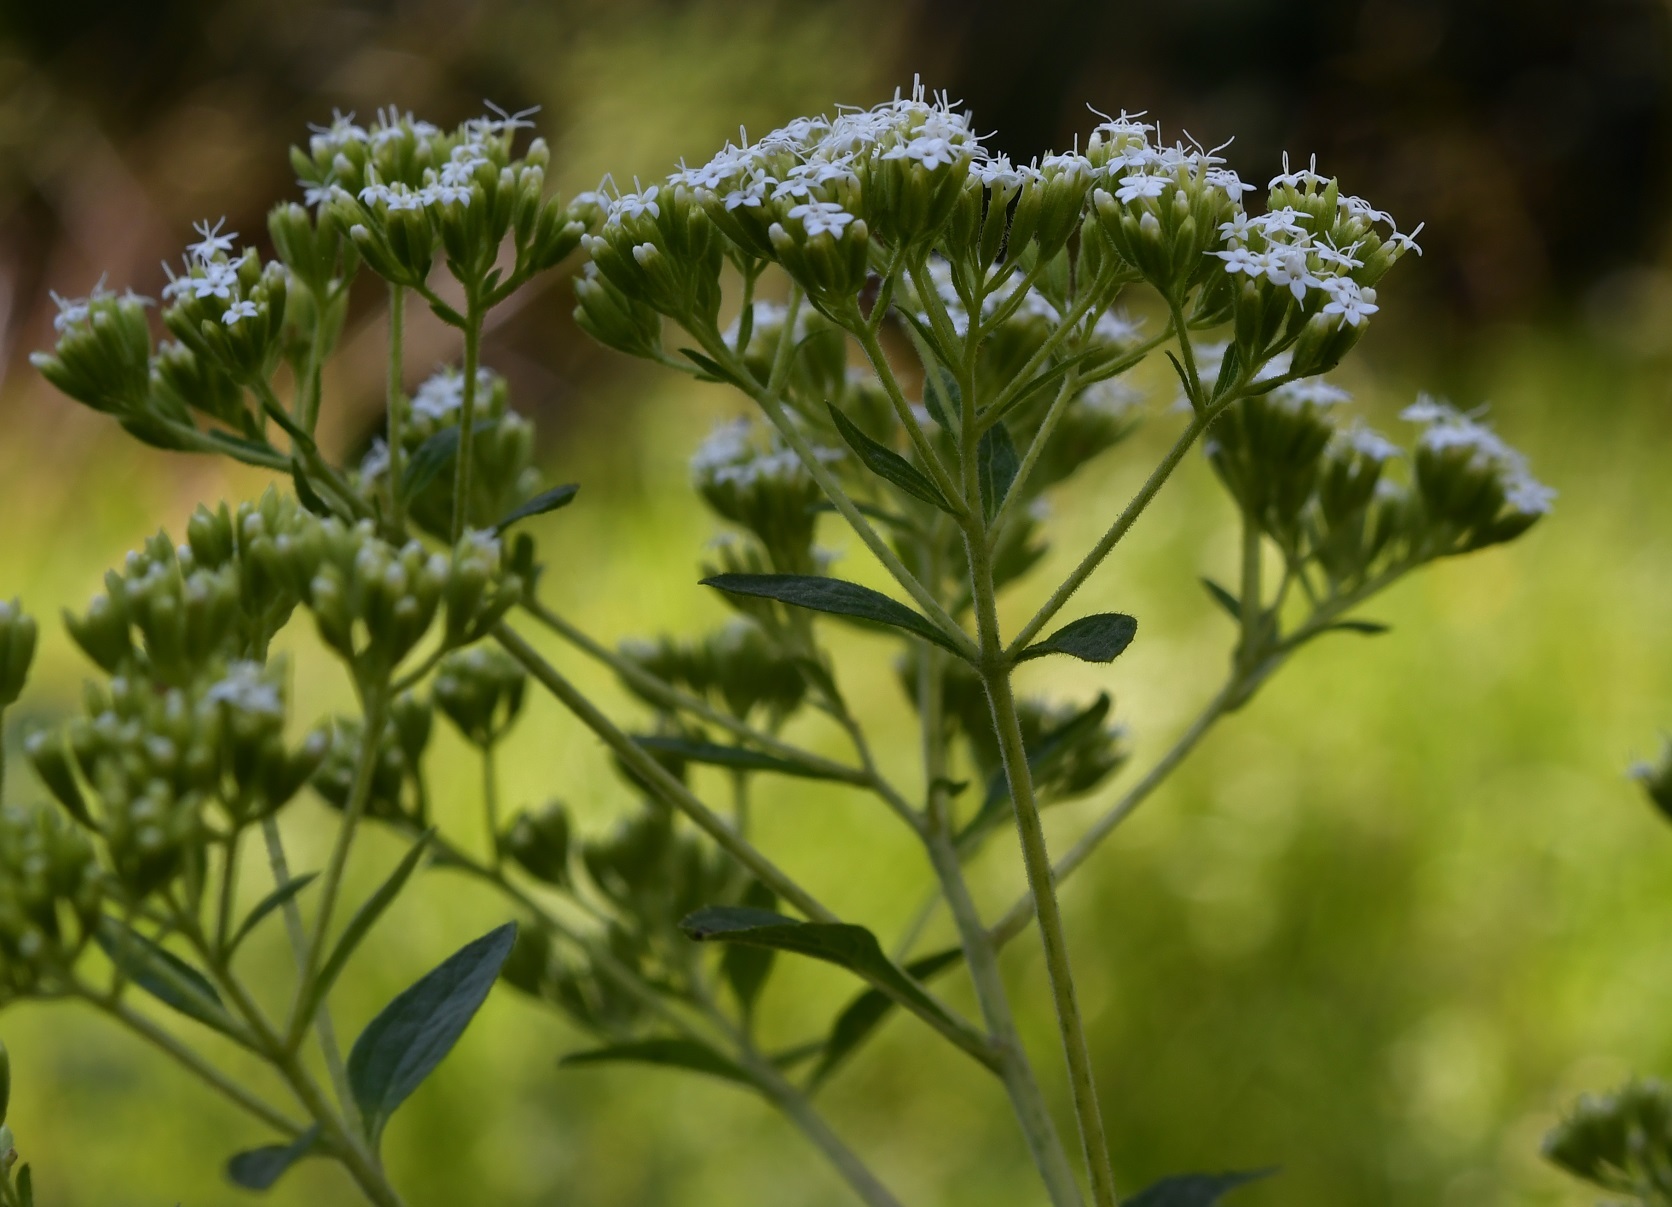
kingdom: Plantae
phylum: Tracheophyta
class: Magnoliopsida
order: Asterales
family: Asteraceae
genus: Stevia
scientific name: Stevia ovata
